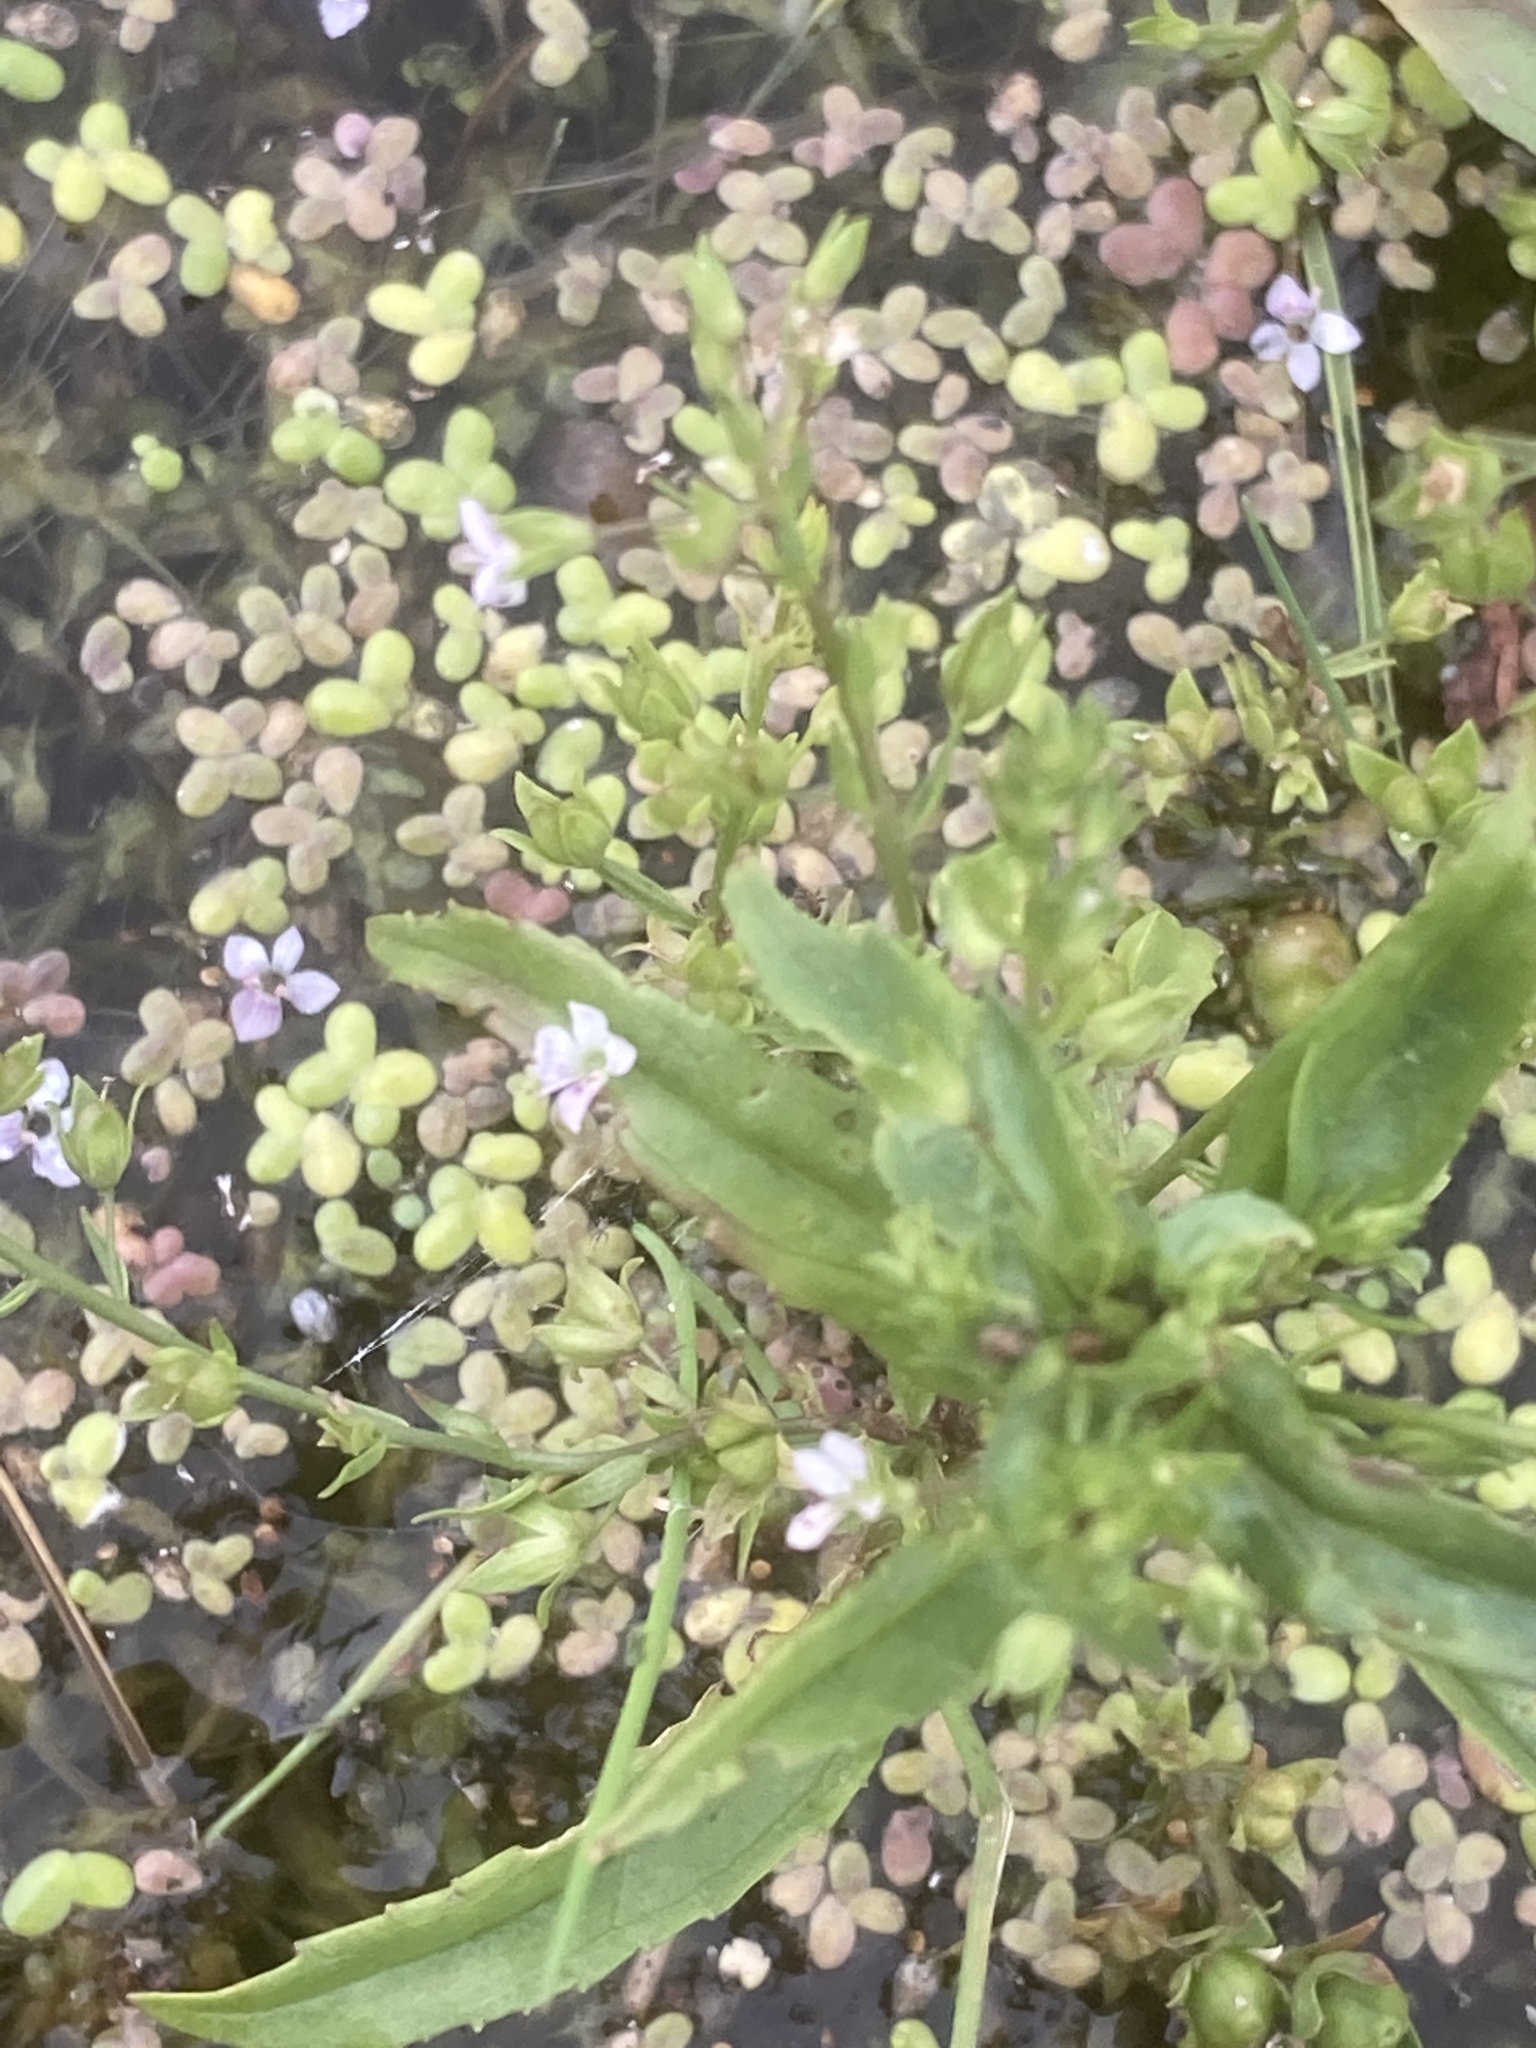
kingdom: Plantae
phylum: Tracheophyta
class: Magnoliopsida
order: Lamiales
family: Plantaginaceae
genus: Veronica
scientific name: Veronica anagallis-aquatica
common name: Water speedwell
